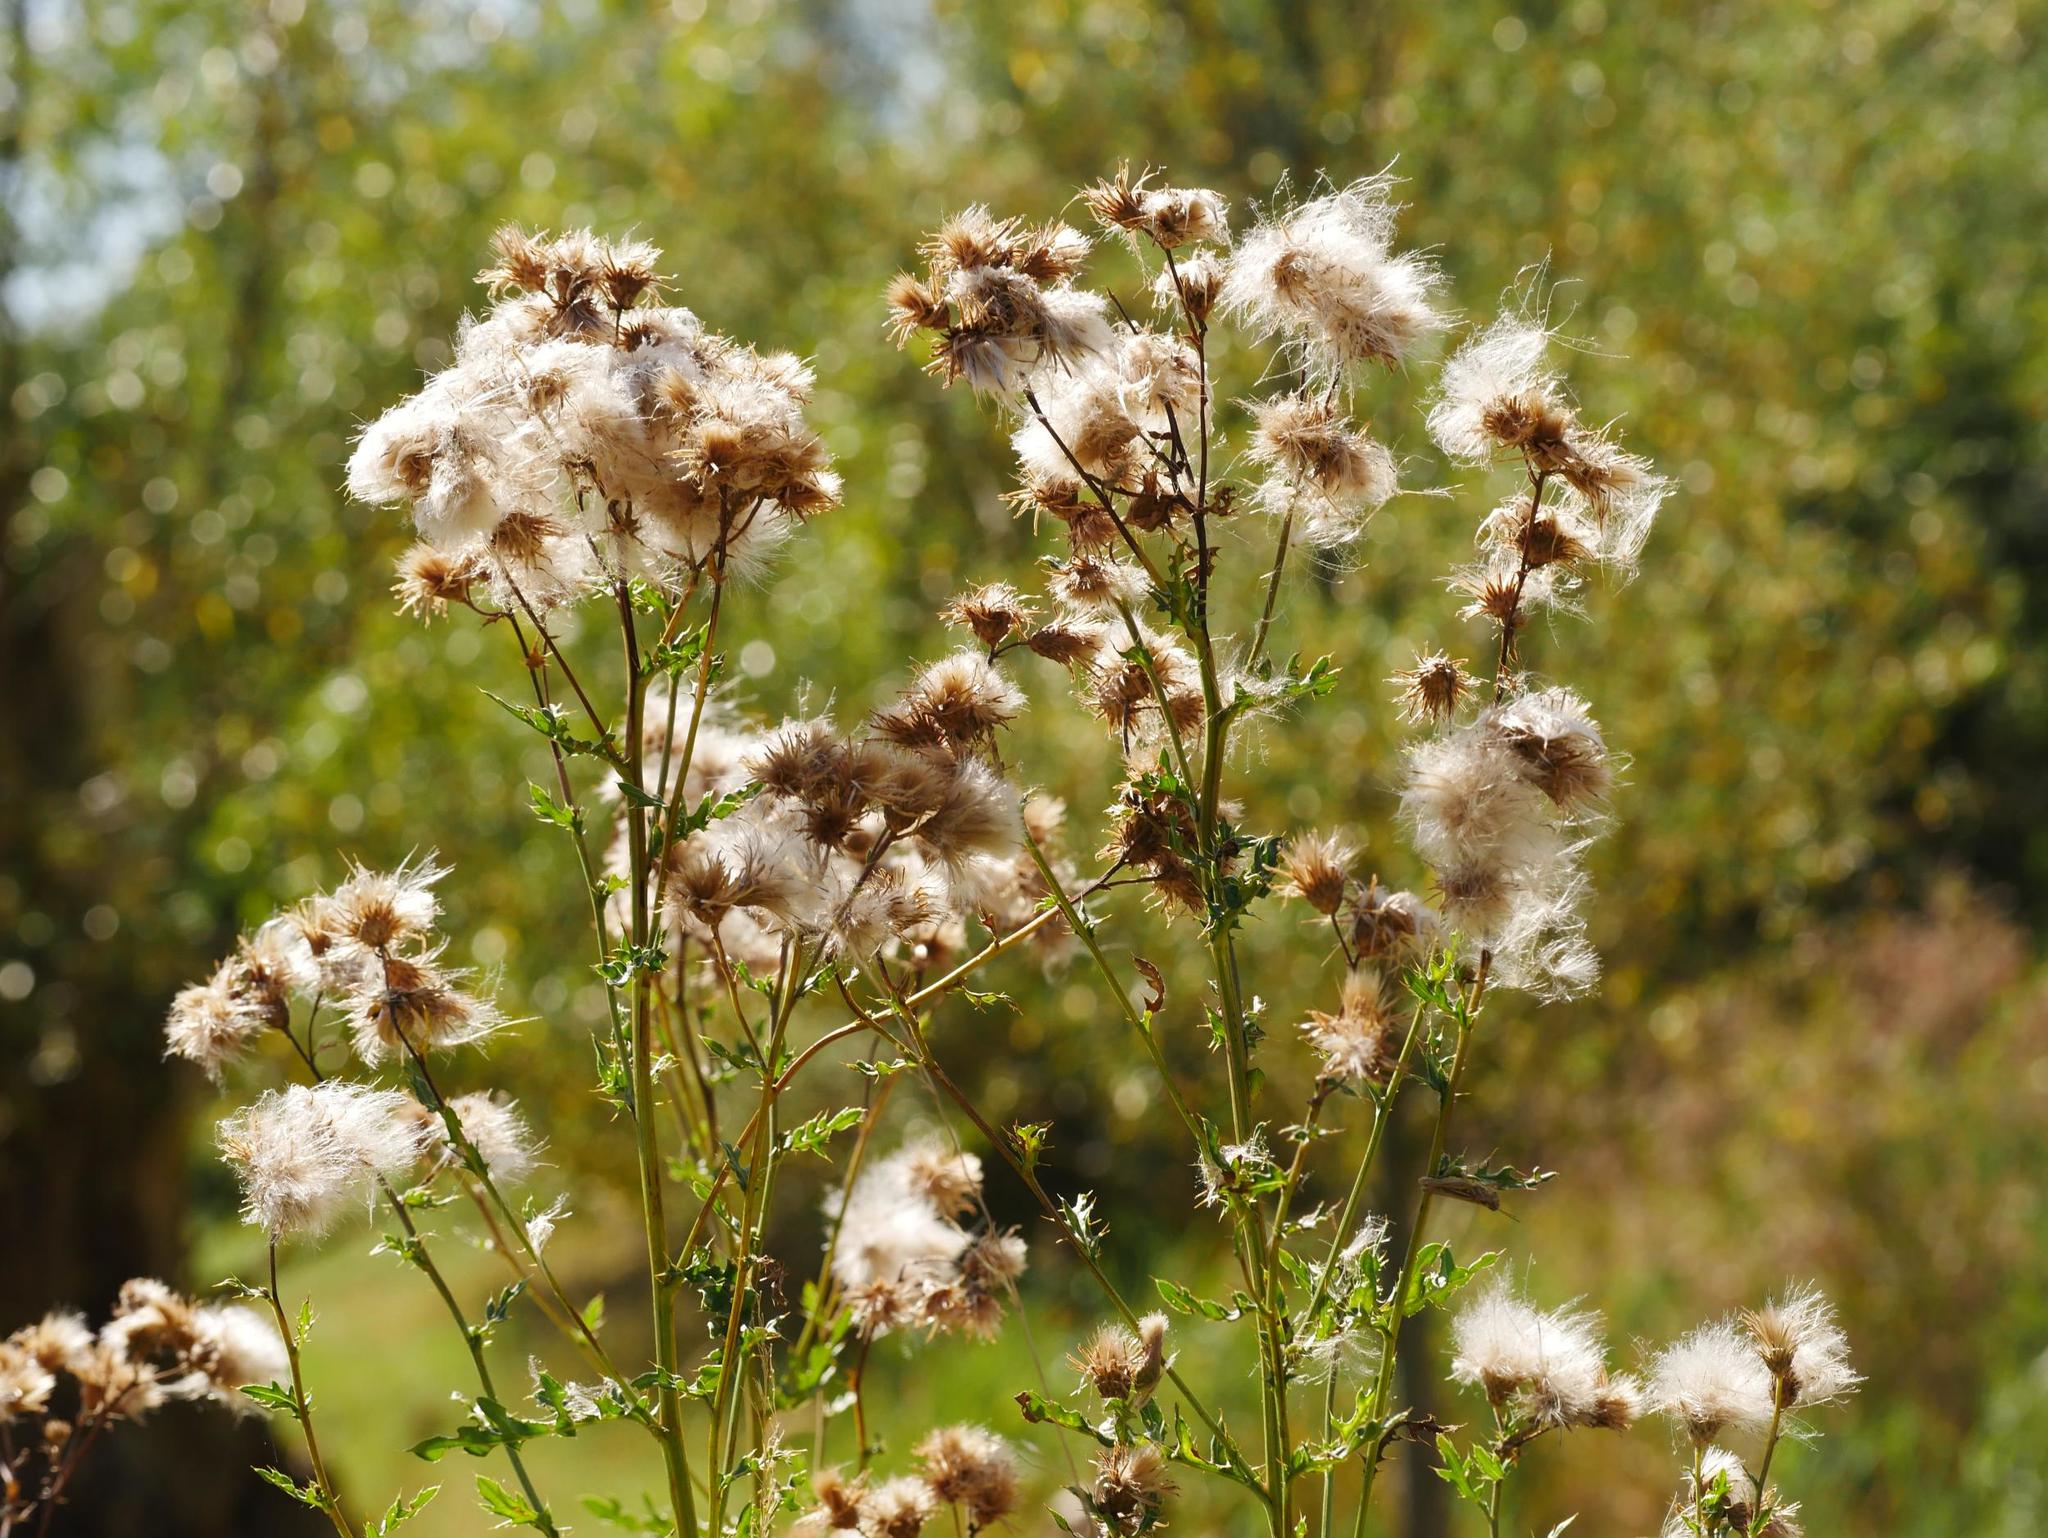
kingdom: Plantae
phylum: Tracheophyta
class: Magnoliopsida
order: Asterales
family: Asteraceae
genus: Cirsium
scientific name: Cirsium arvense
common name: Creeping thistle
